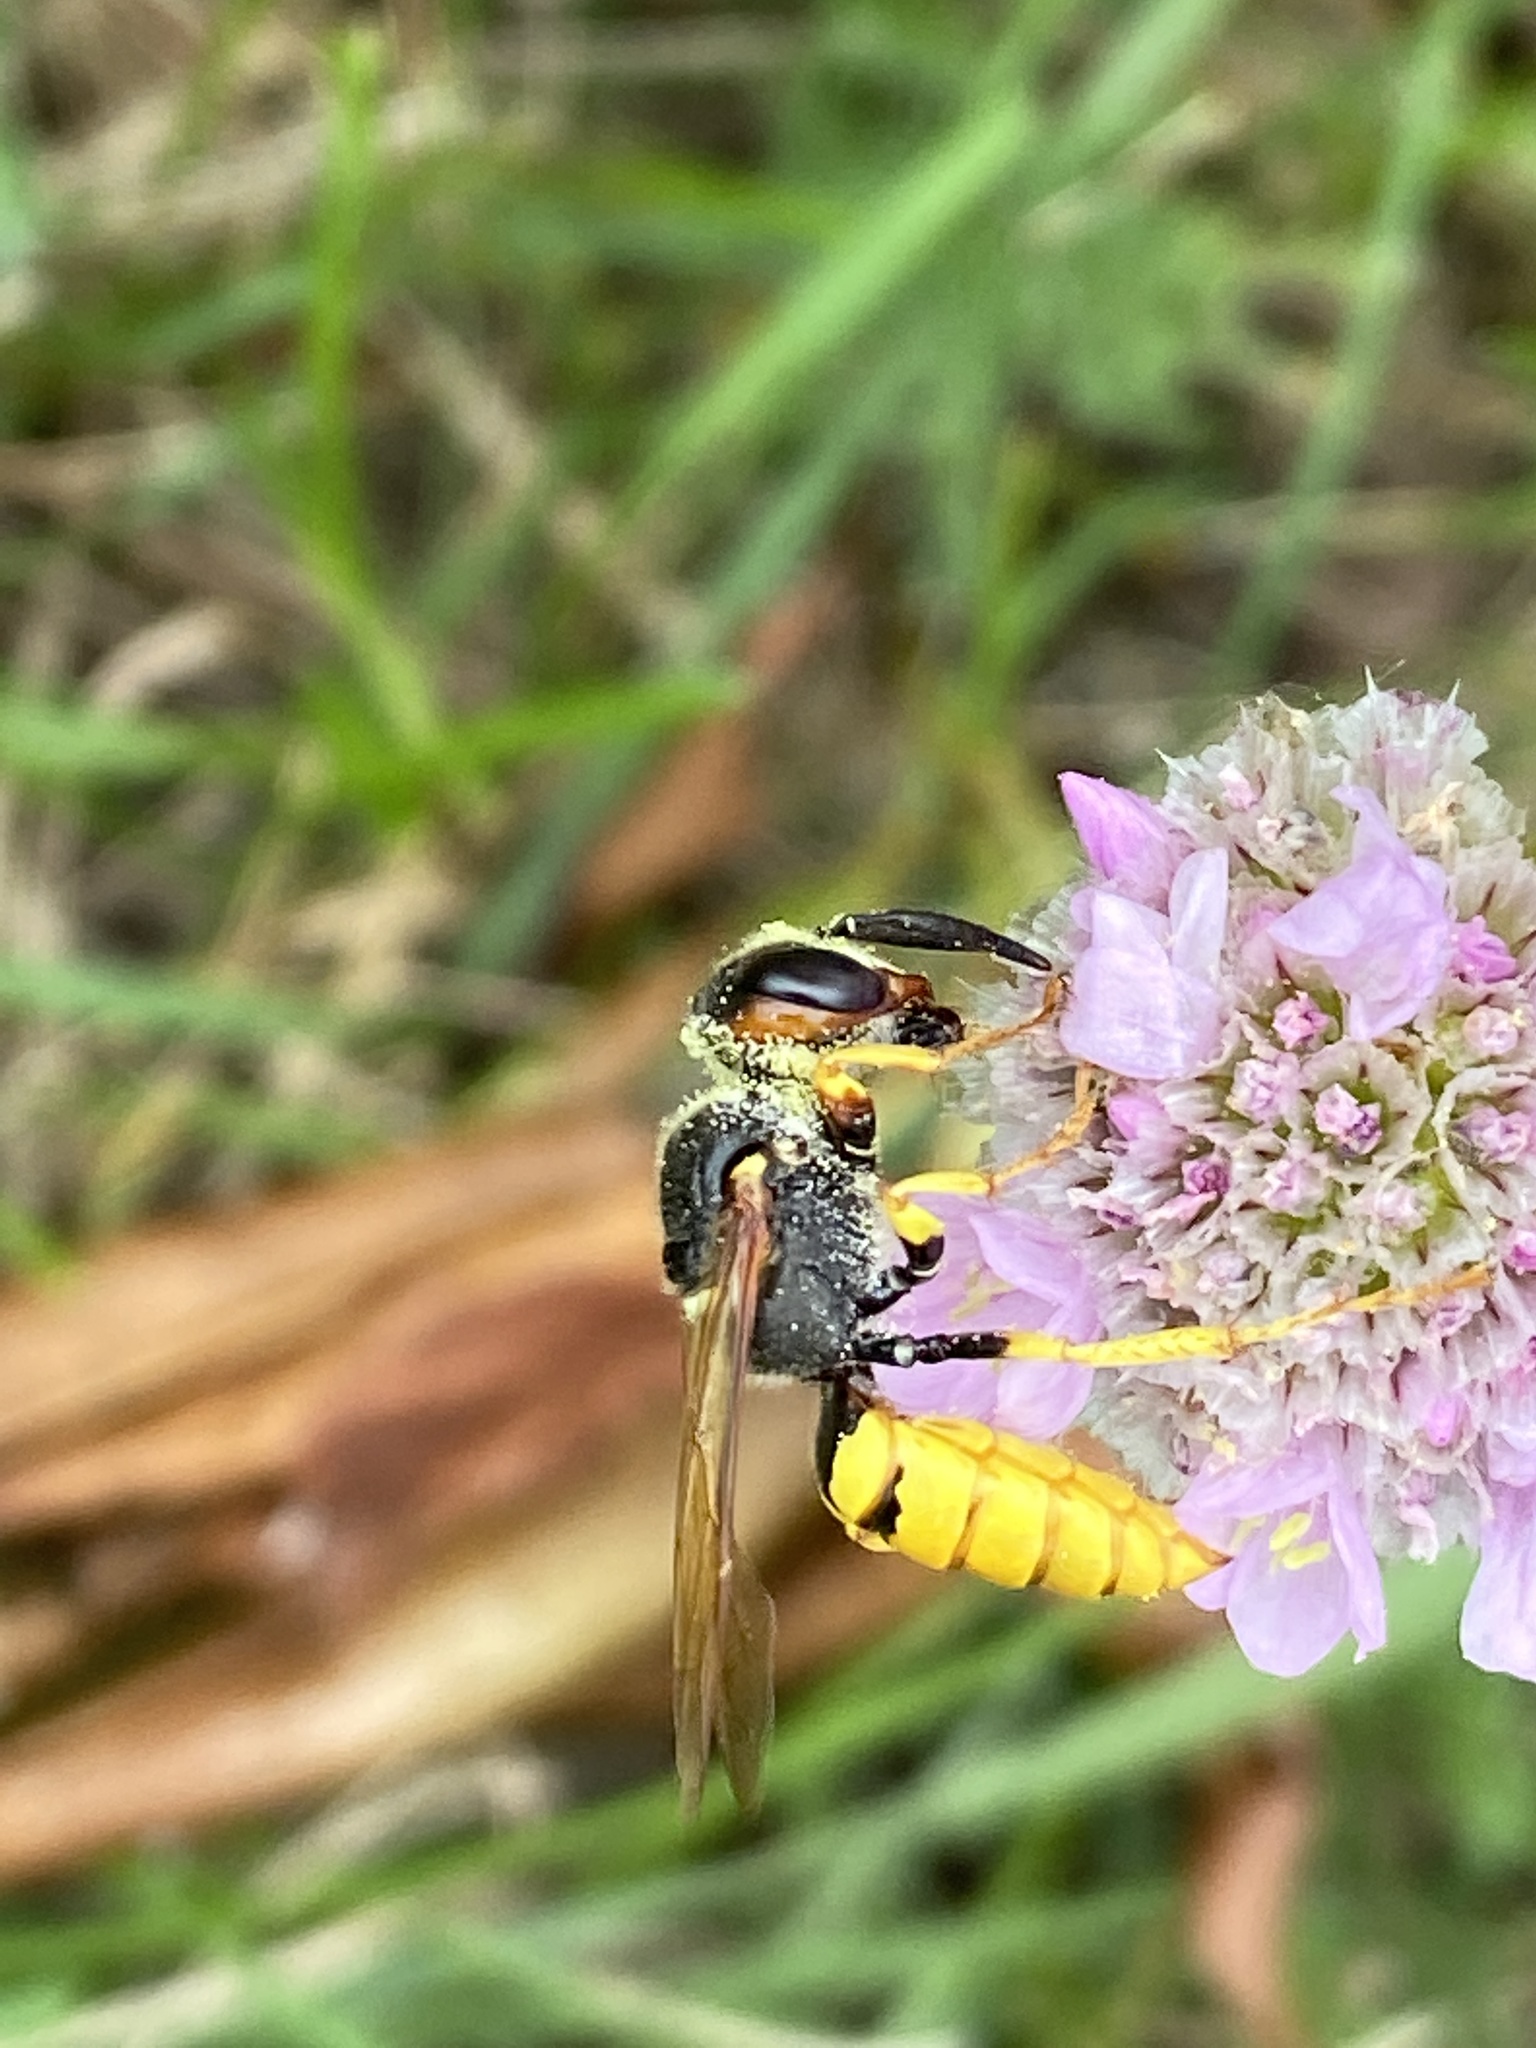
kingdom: Animalia
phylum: Arthropoda
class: Insecta
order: Hymenoptera
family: Crabronidae
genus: Philanthus
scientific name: Philanthus triangulum
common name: Bee wolf
